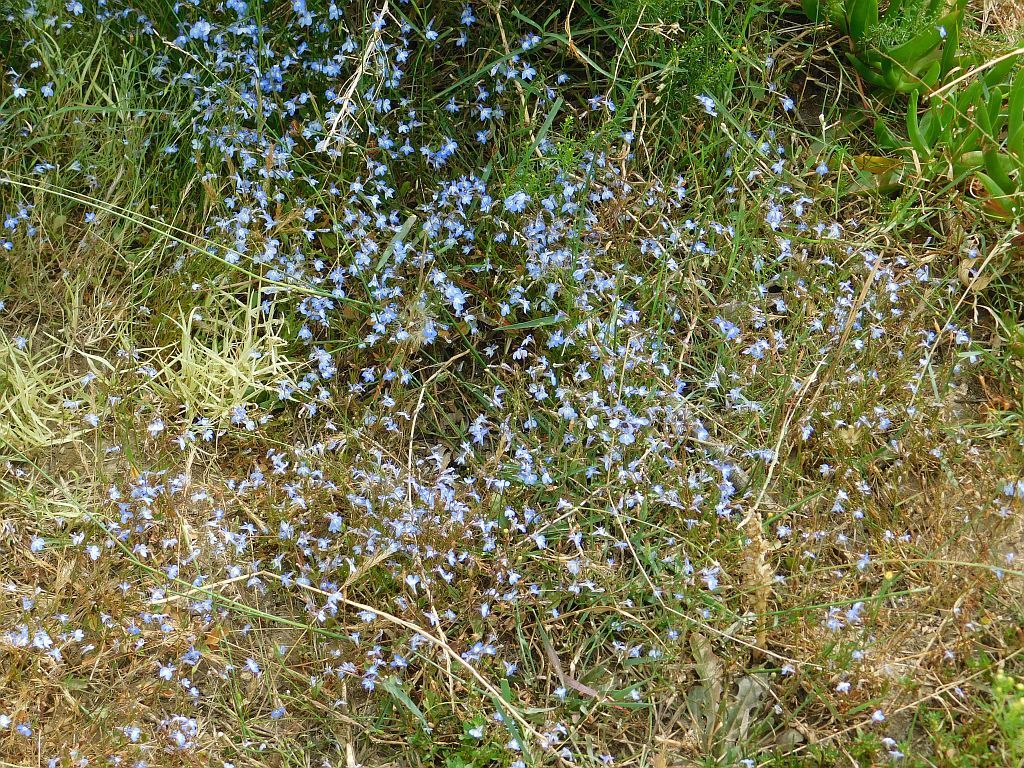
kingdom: Plantae
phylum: Tracheophyta
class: Magnoliopsida
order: Asterales
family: Campanulaceae
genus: Lobelia
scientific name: Lobelia erinus
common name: Edging lobelia
